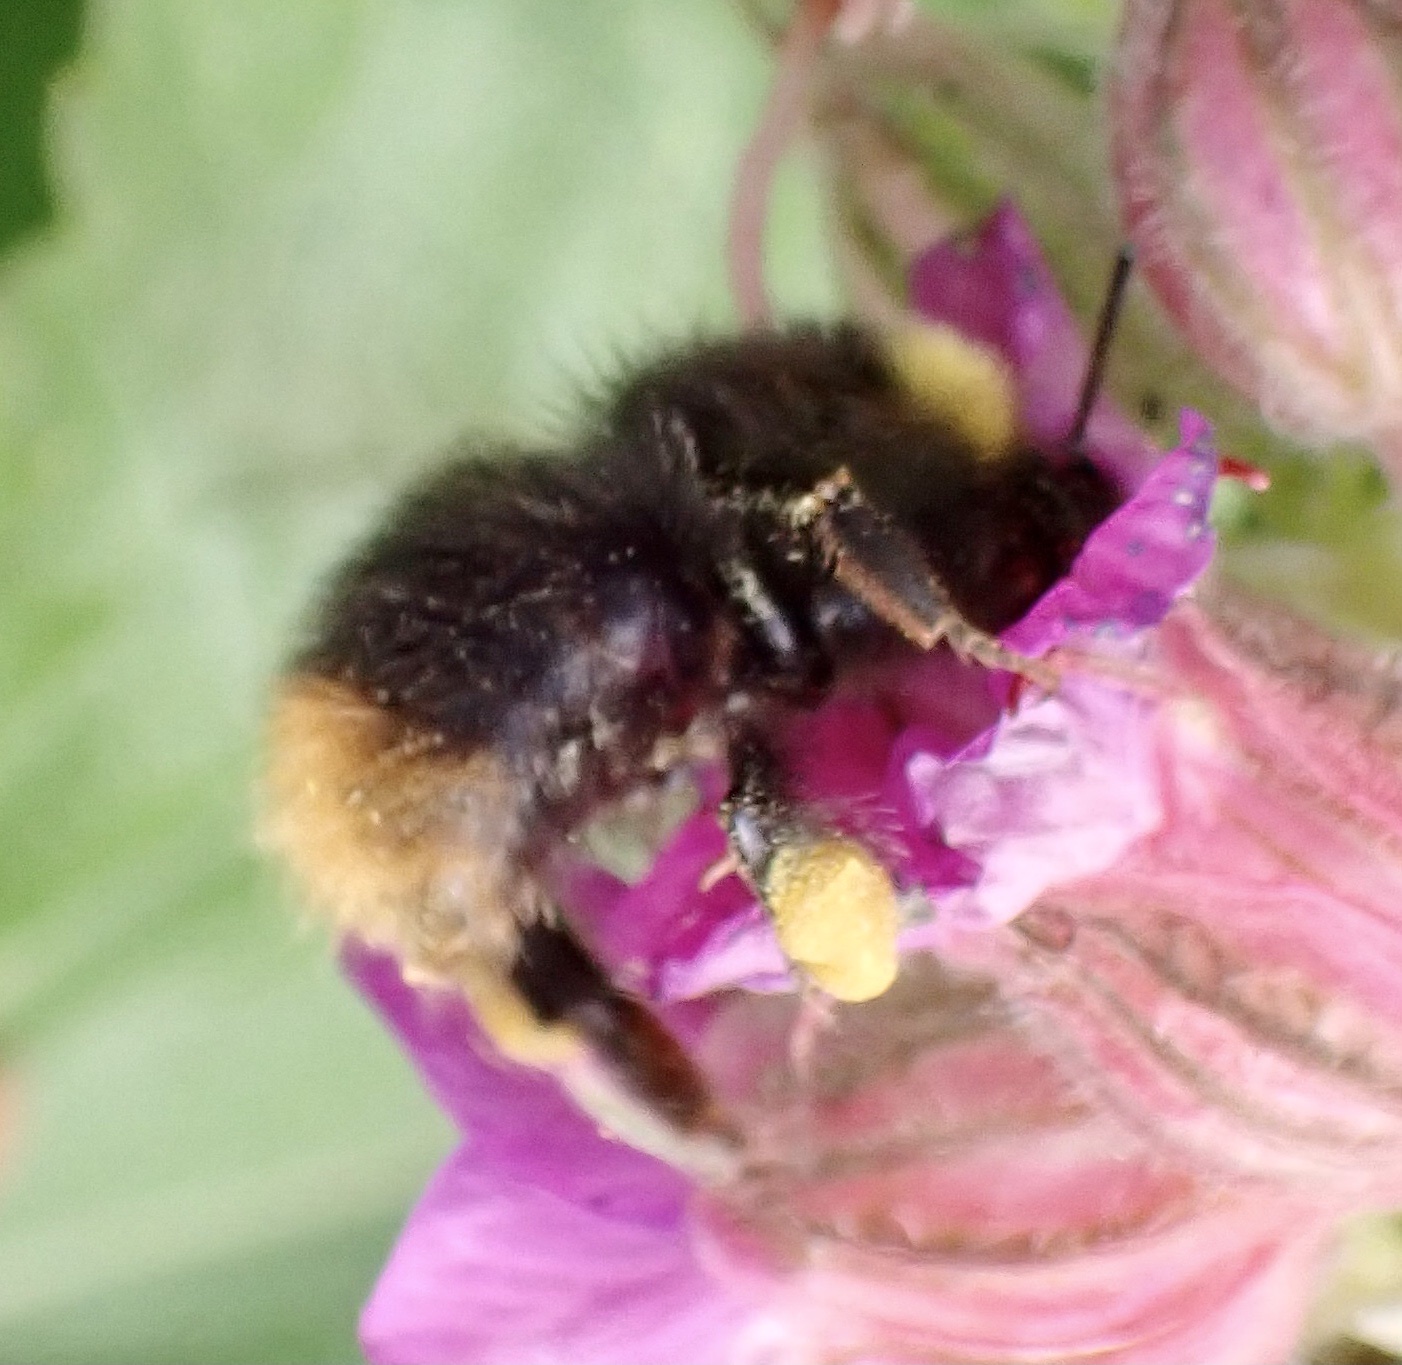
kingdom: Animalia
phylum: Arthropoda
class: Insecta
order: Hymenoptera
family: Apidae
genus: Bombus
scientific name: Bombus pratorum
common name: Early humble-bee
